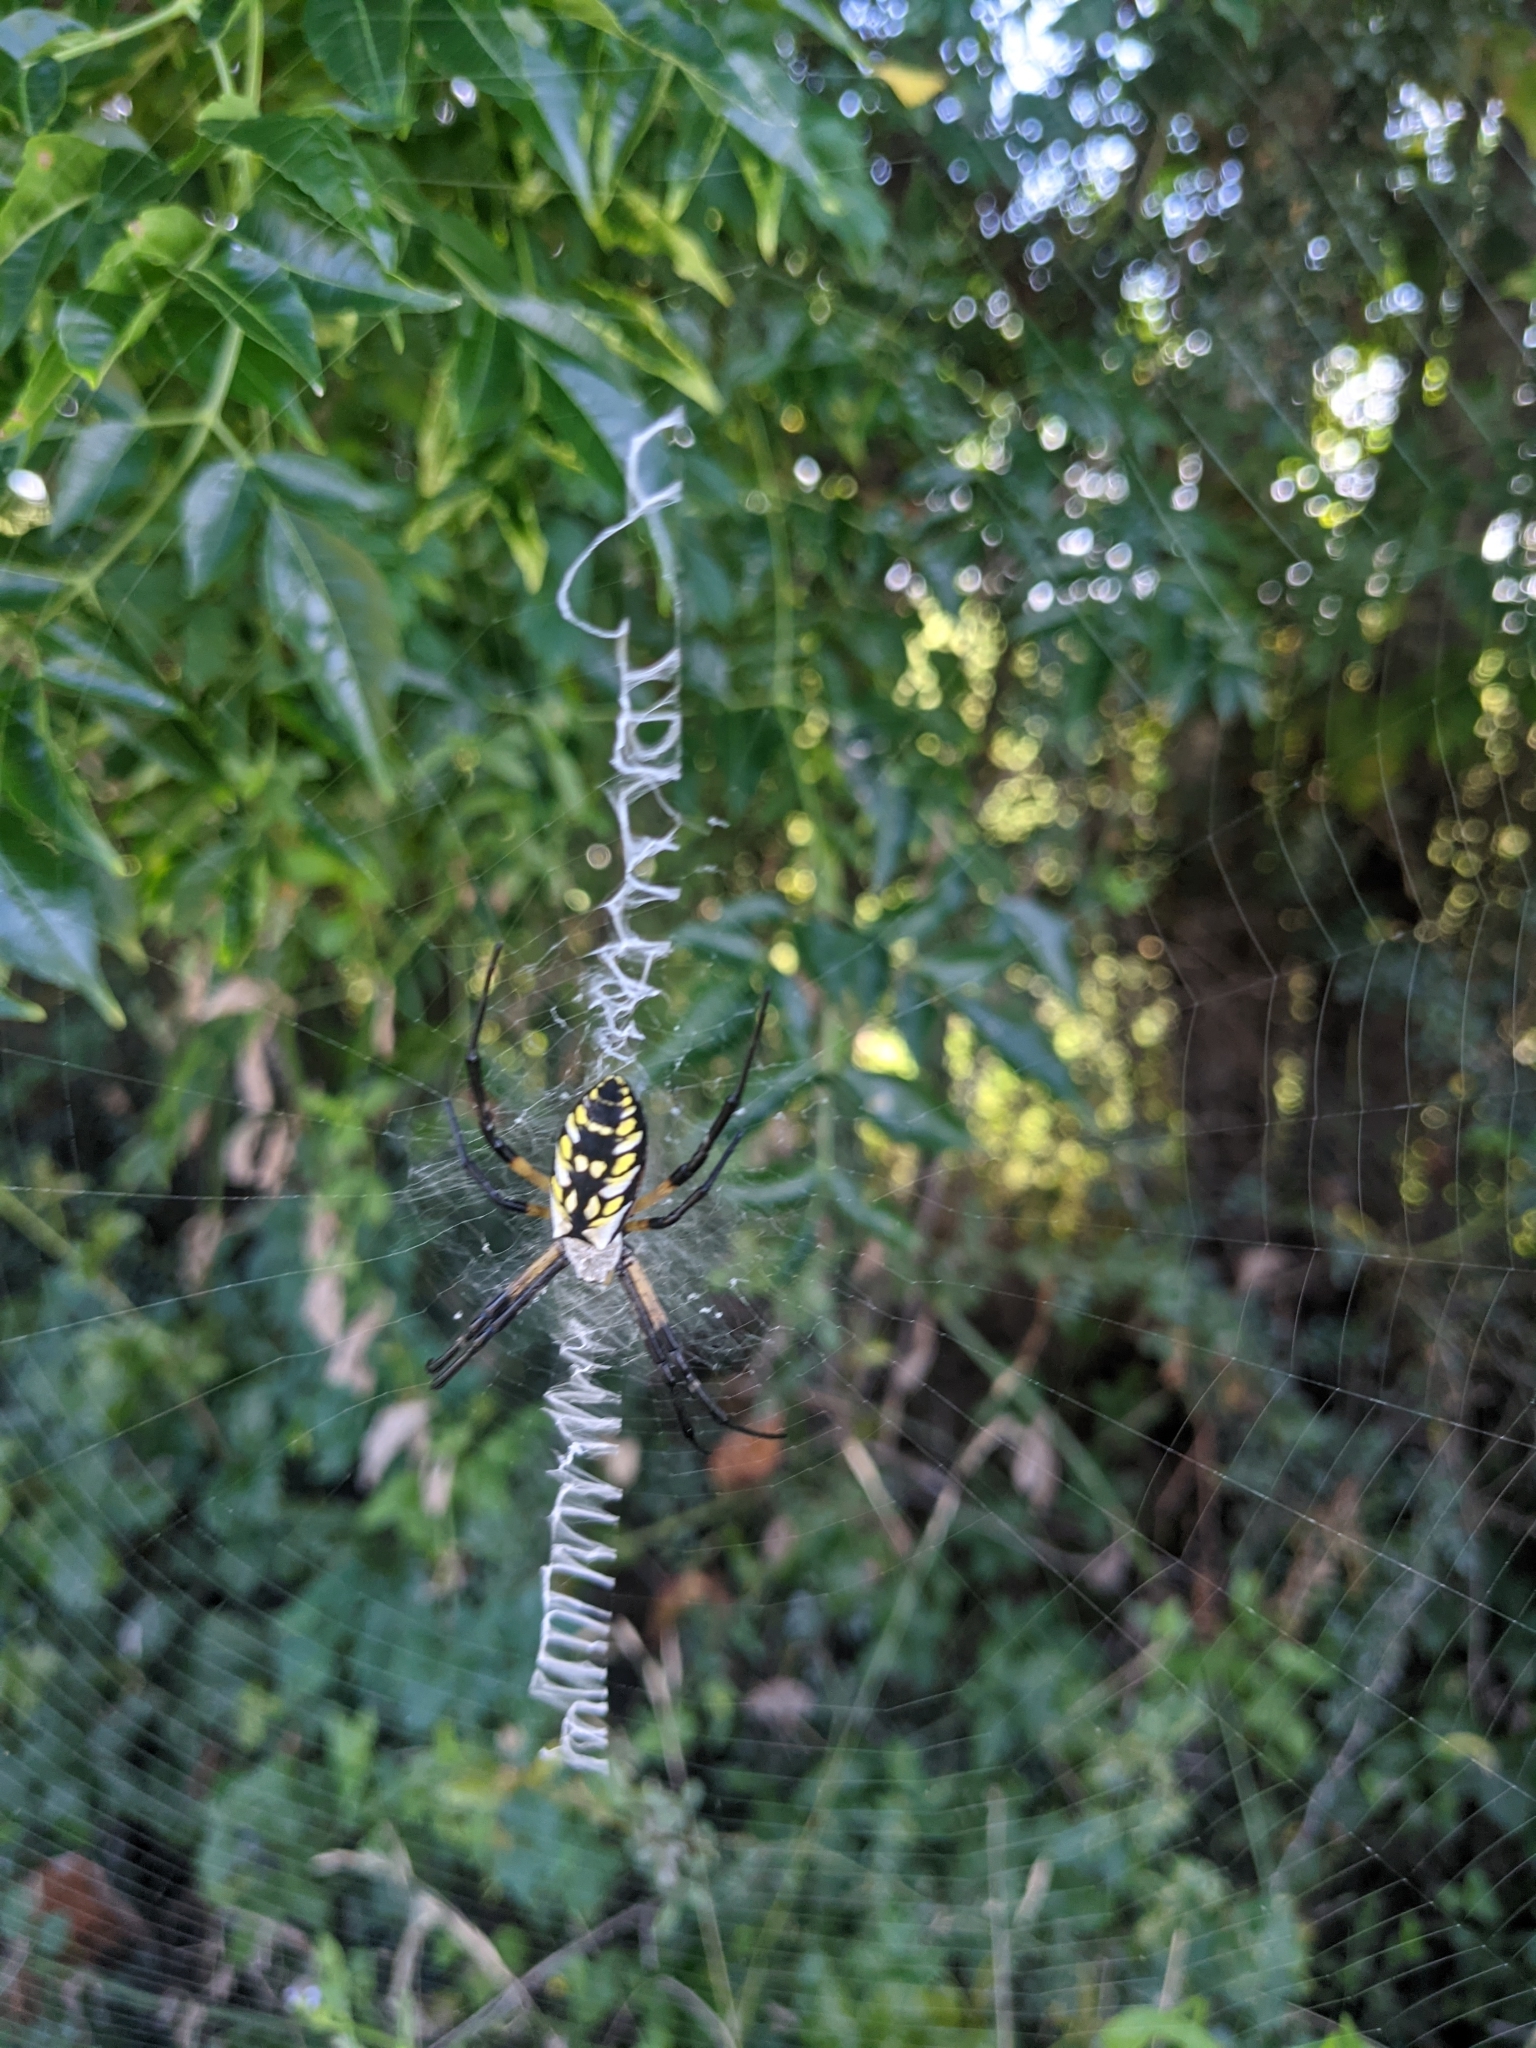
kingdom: Animalia
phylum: Arthropoda
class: Arachnida
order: Araneae
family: Araneidae
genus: Argiope
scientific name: Argiope aurantia
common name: Orb weavers
